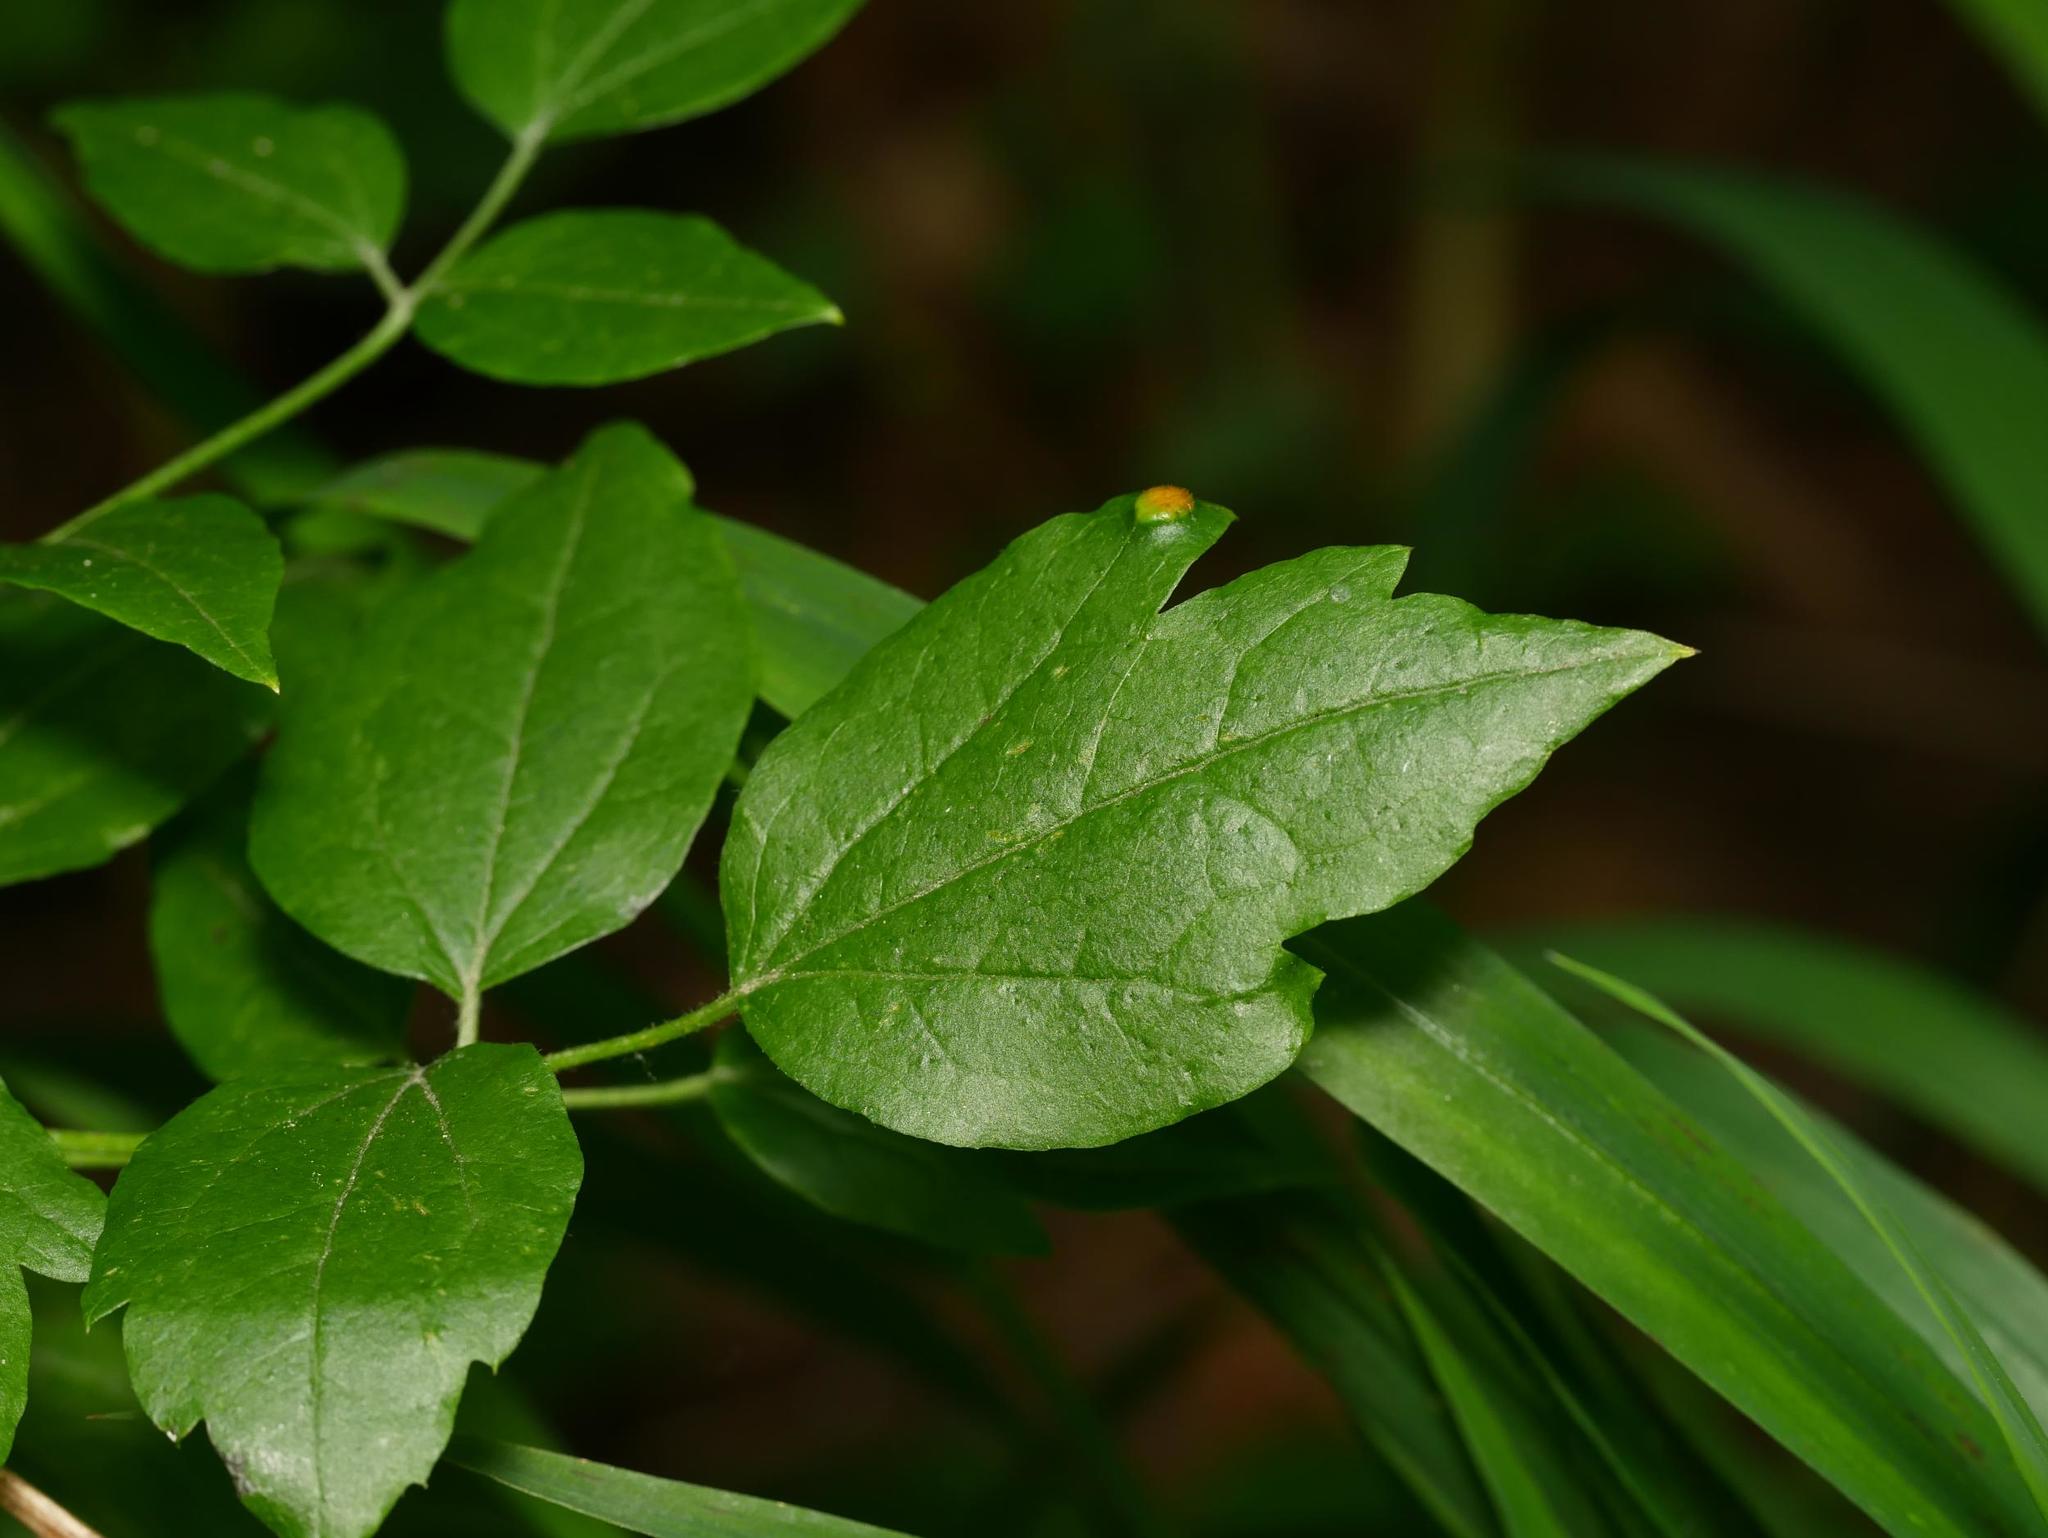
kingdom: Plantae
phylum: Tracheophyta
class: Magnoliopsida
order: Ranunculales
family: Ranunculaceae
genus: Clematis
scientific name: Clematis vitalba
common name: Evergreen clematis
